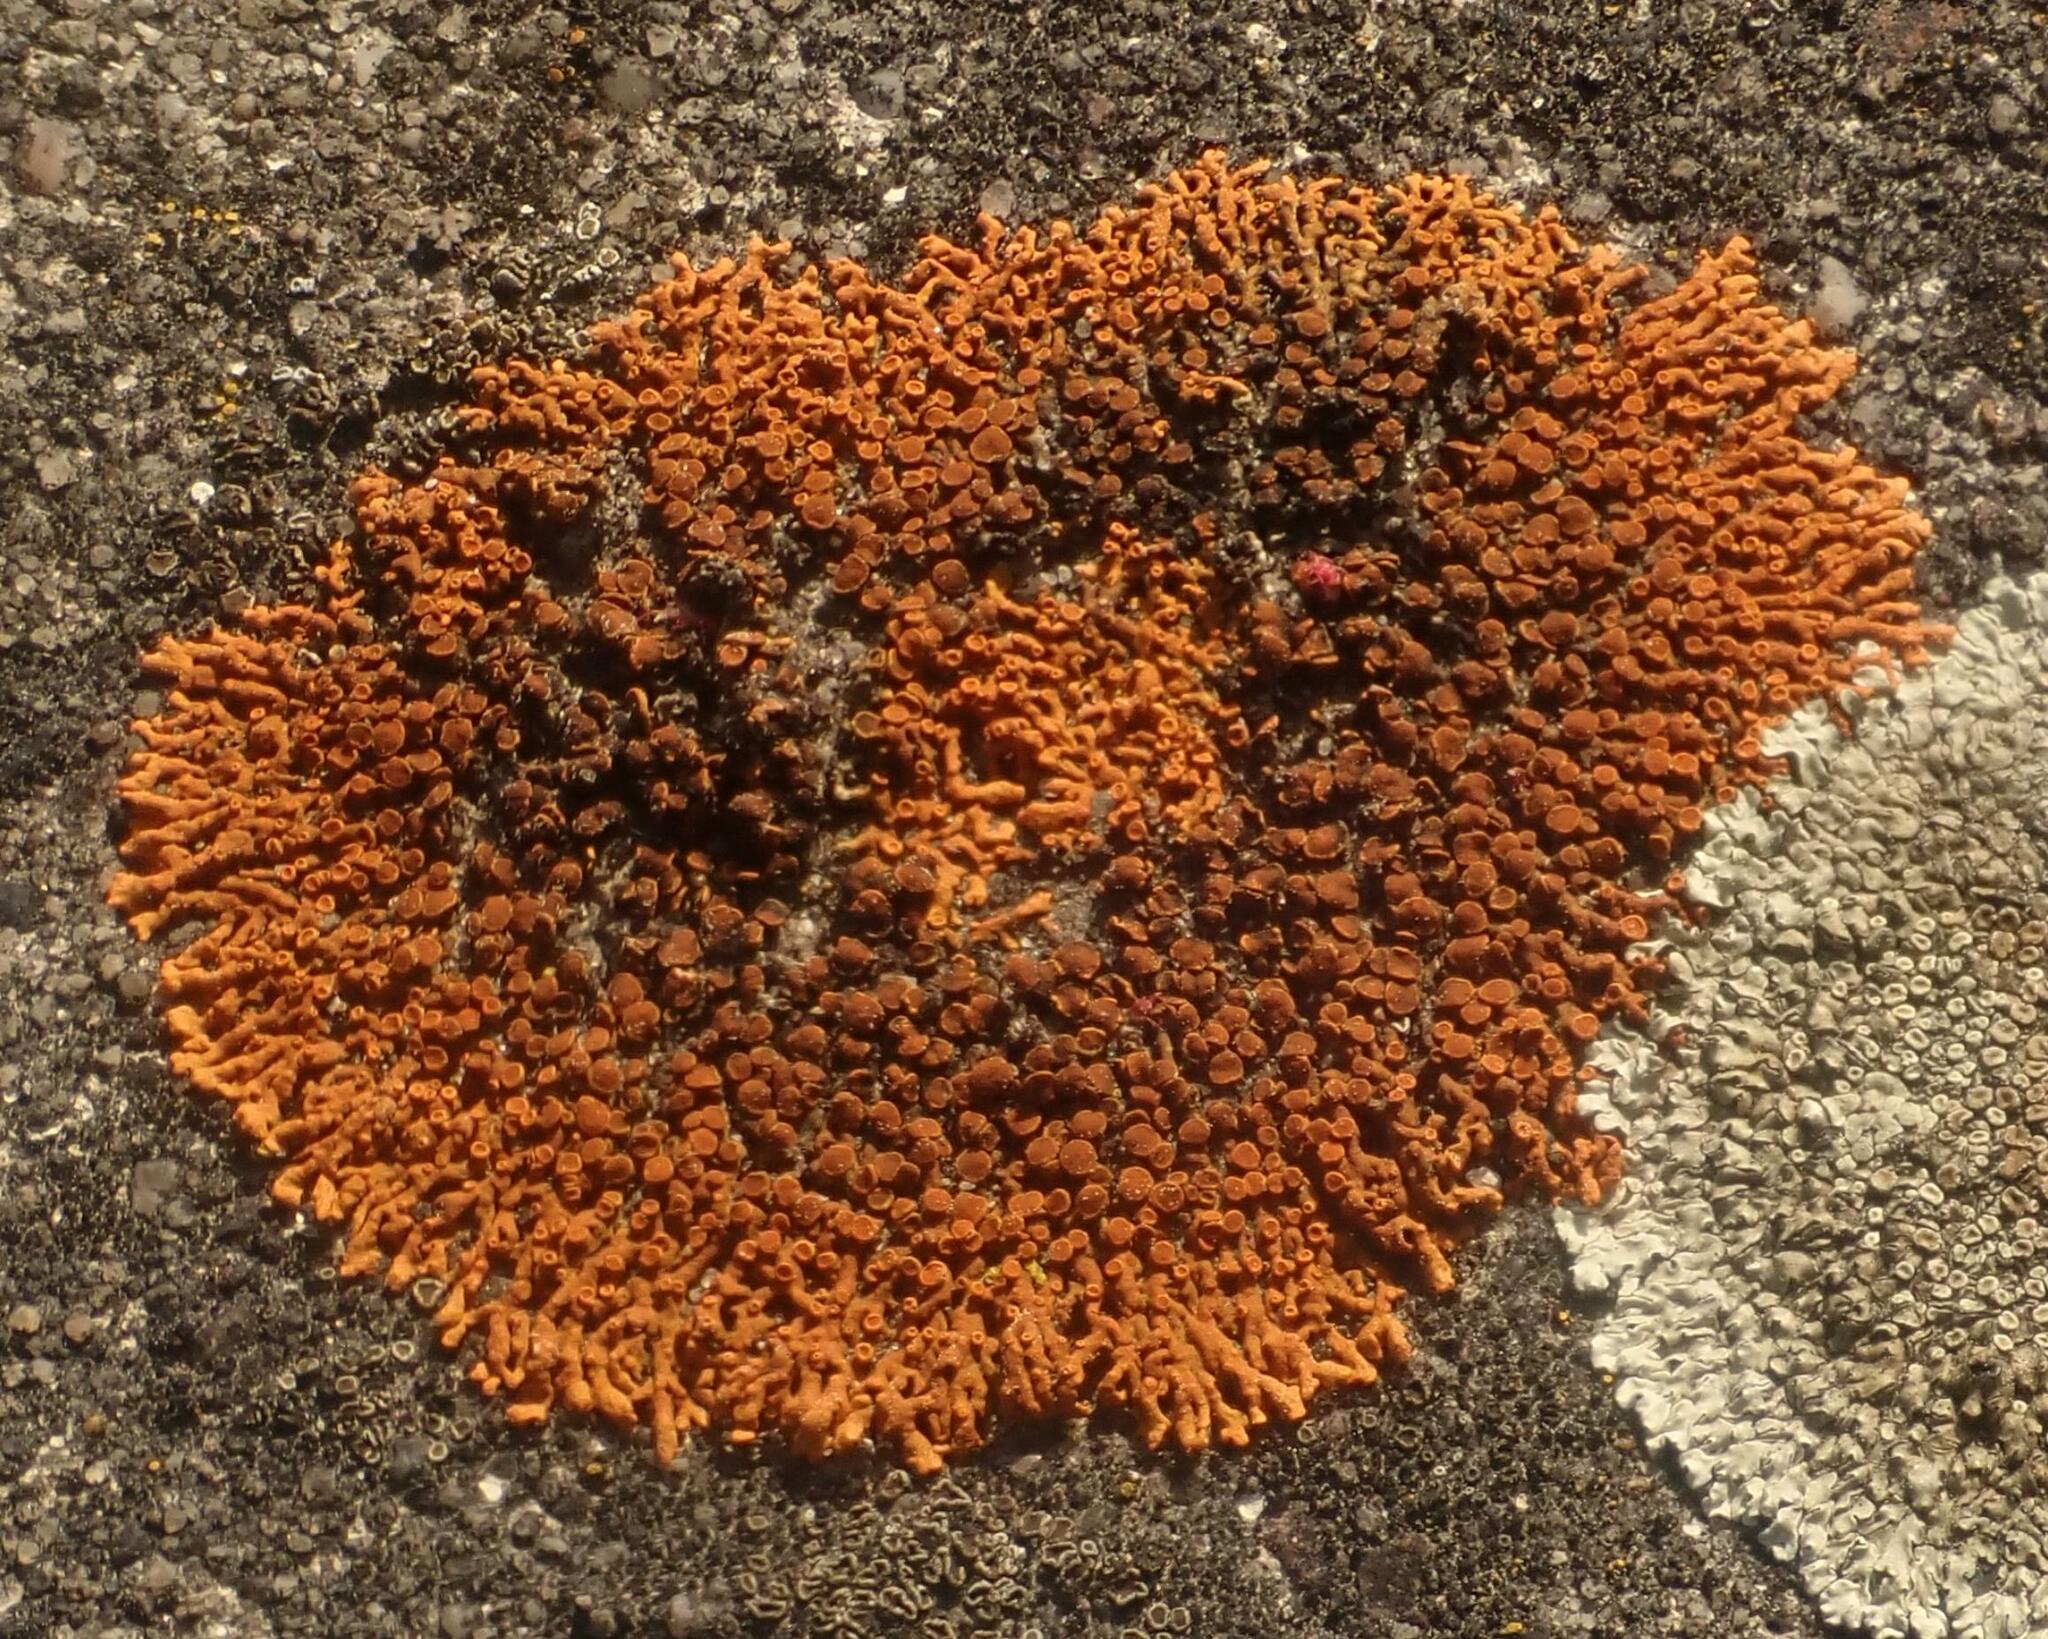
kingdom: Fungi
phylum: Ascomycota
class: Lecanoromycetes
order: Teloschistales
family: Teloschistaceae
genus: Xanthoria
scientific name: Xanthoria elegans
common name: Elegant sunburst lichen
